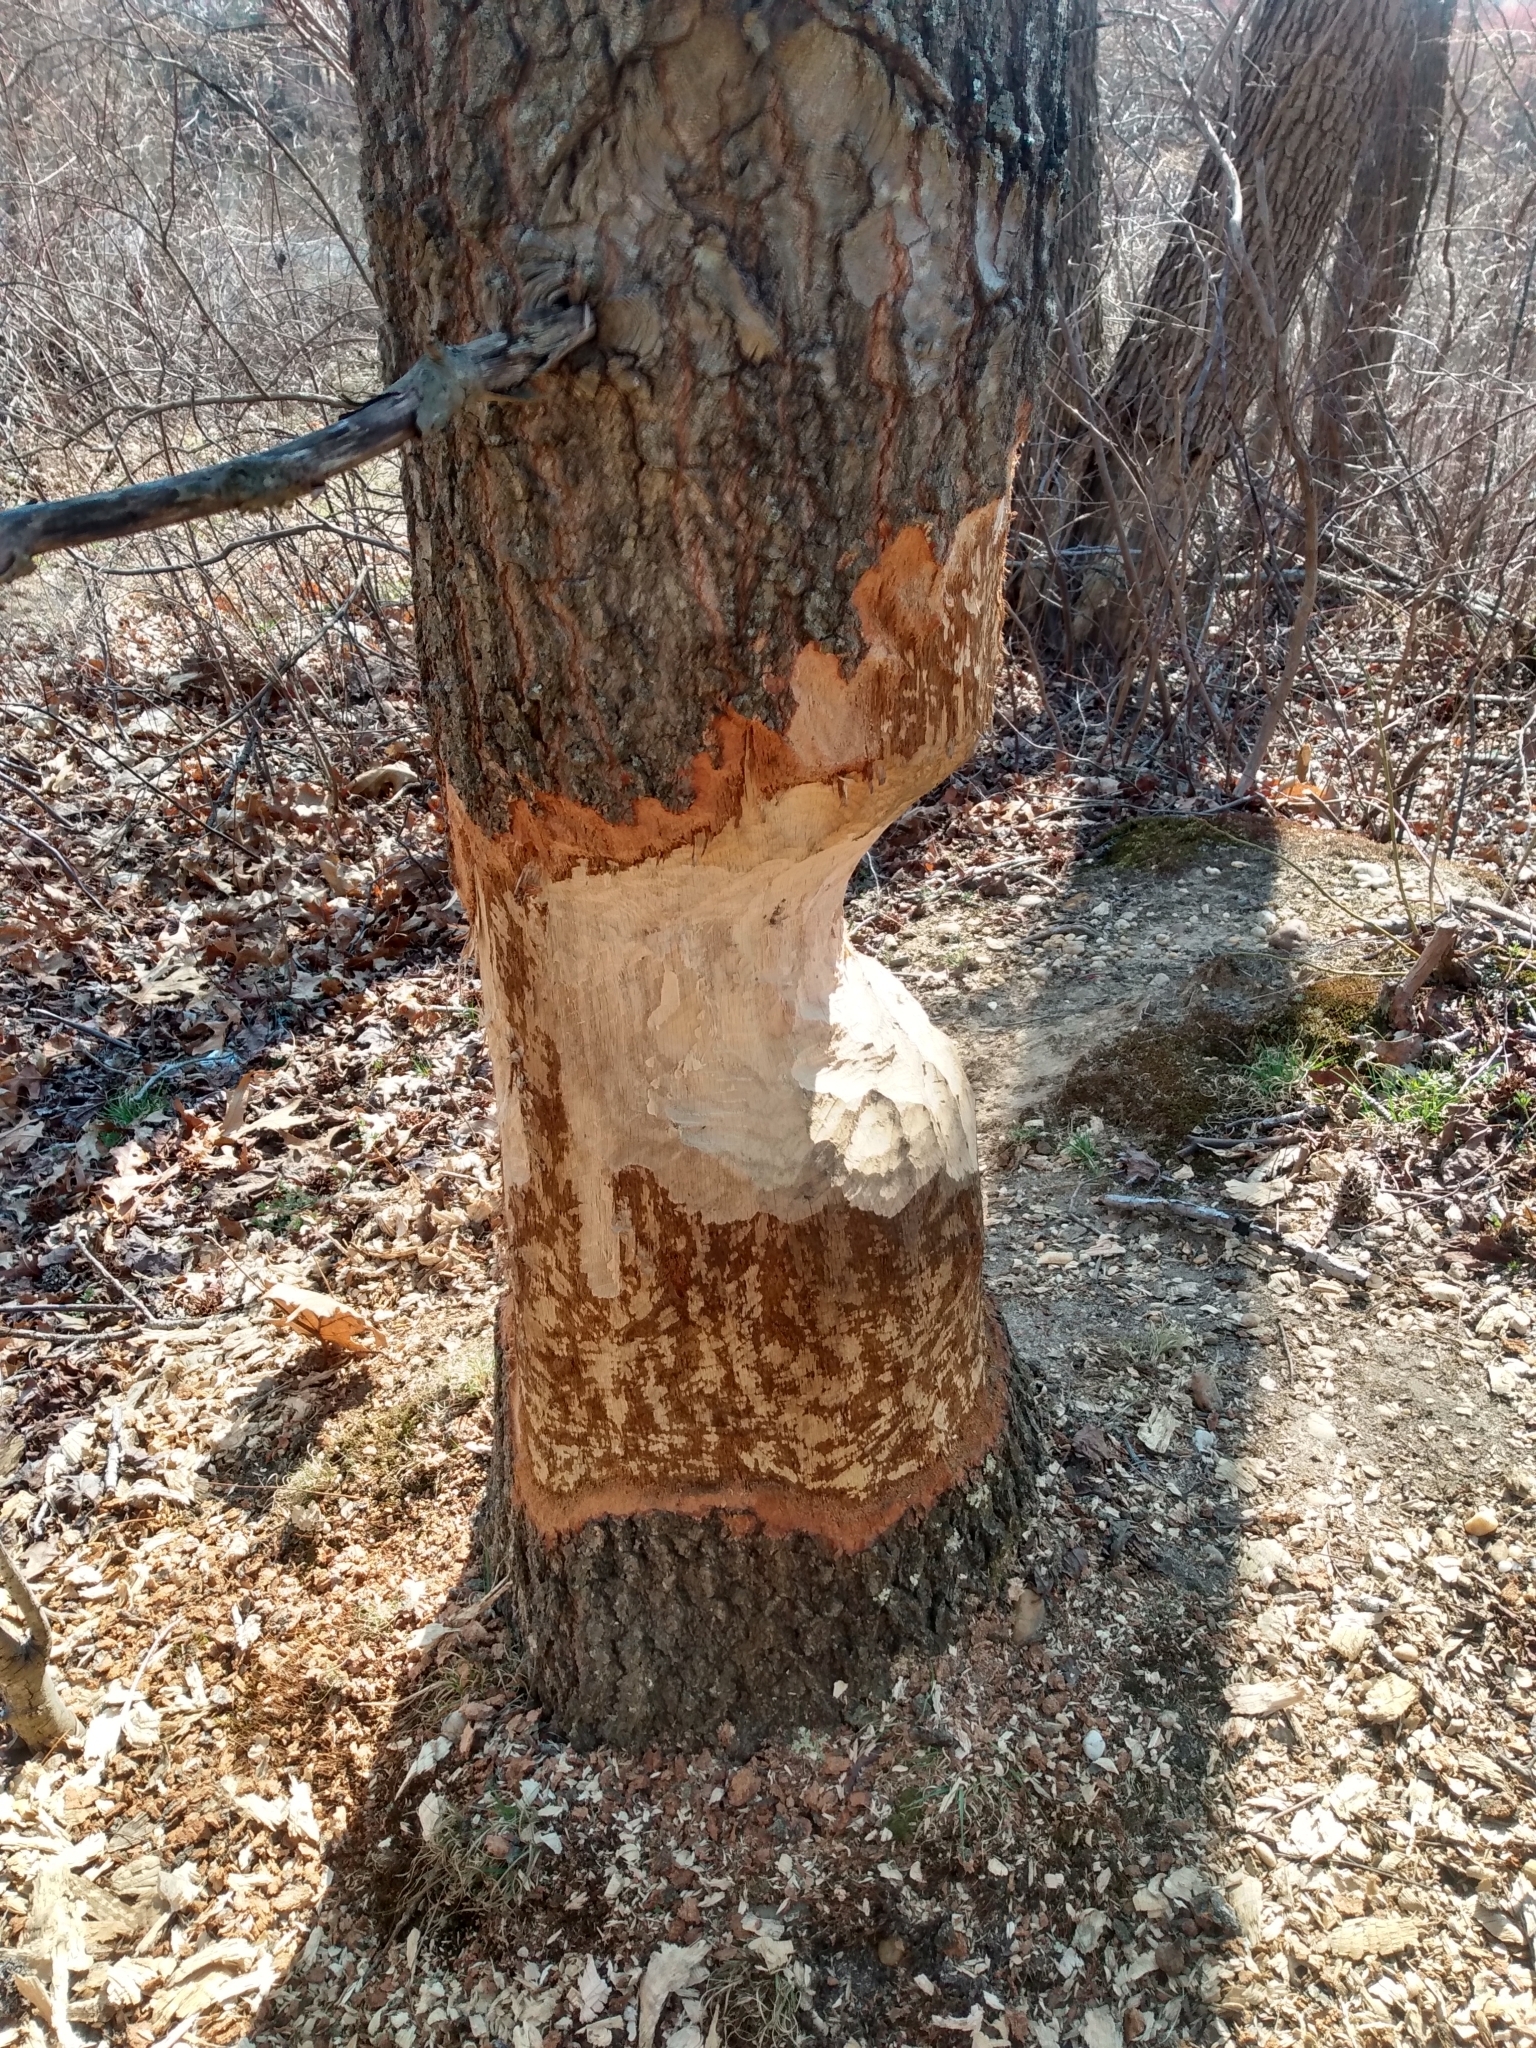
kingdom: Animalia
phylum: Chordata
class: Mammalia
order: Rodentia
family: Castoridae
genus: Castor
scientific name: Castor canadensis
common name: American beaver
